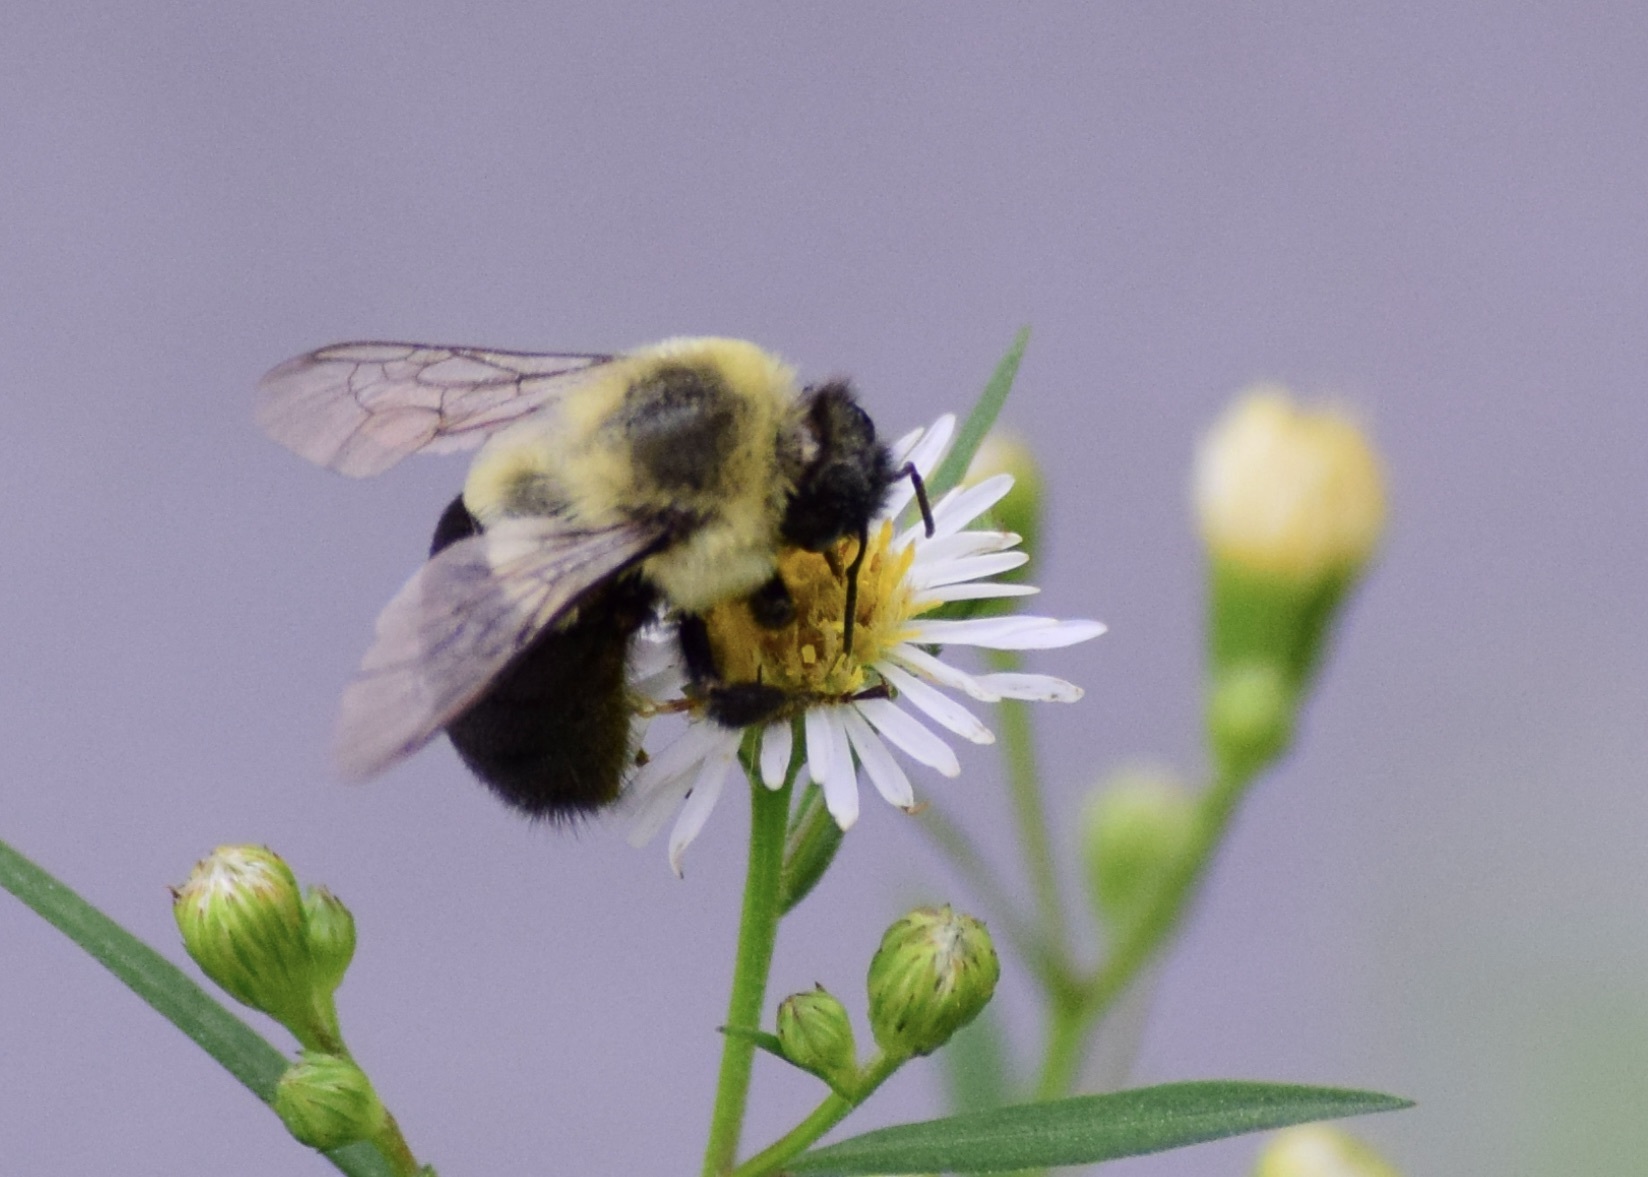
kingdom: Animalia
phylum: Arthropoda
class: Insecta
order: Hymenoptera
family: Apidae
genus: Bombus
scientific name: Bombus impatiens
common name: Common eastern bumble bee
